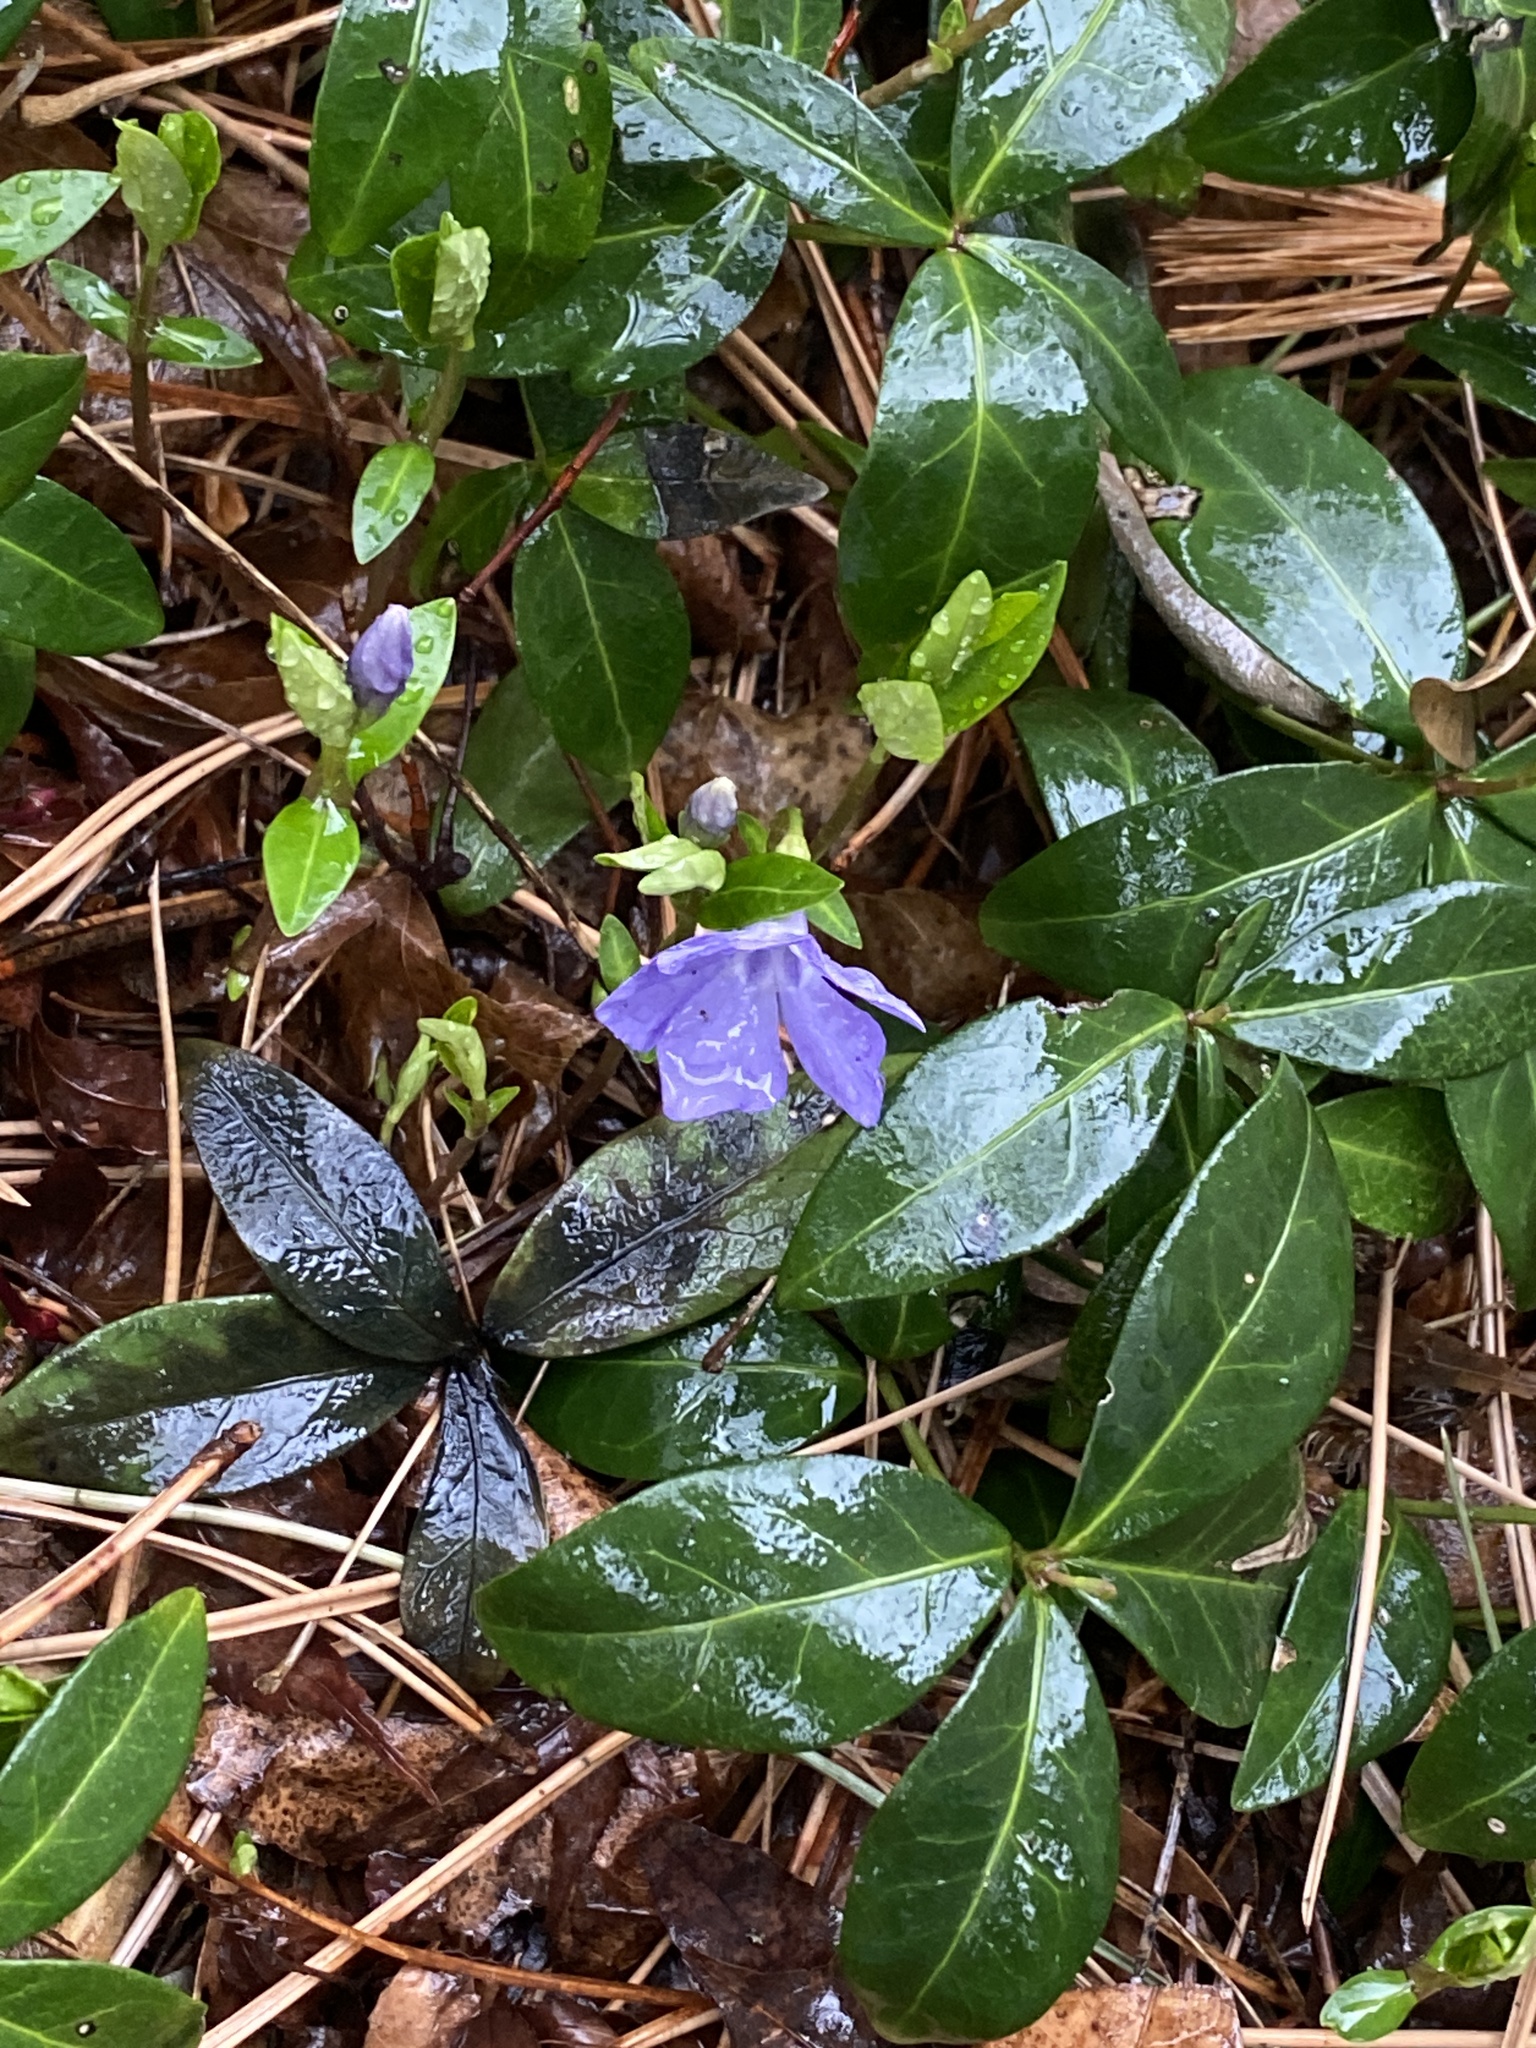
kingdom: Plantae
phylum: Tracheophyta
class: Magnoliopsida
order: Gentianales
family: Apocynaceae
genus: Vinca
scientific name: Vinca minor
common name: Lesser periwinkle
